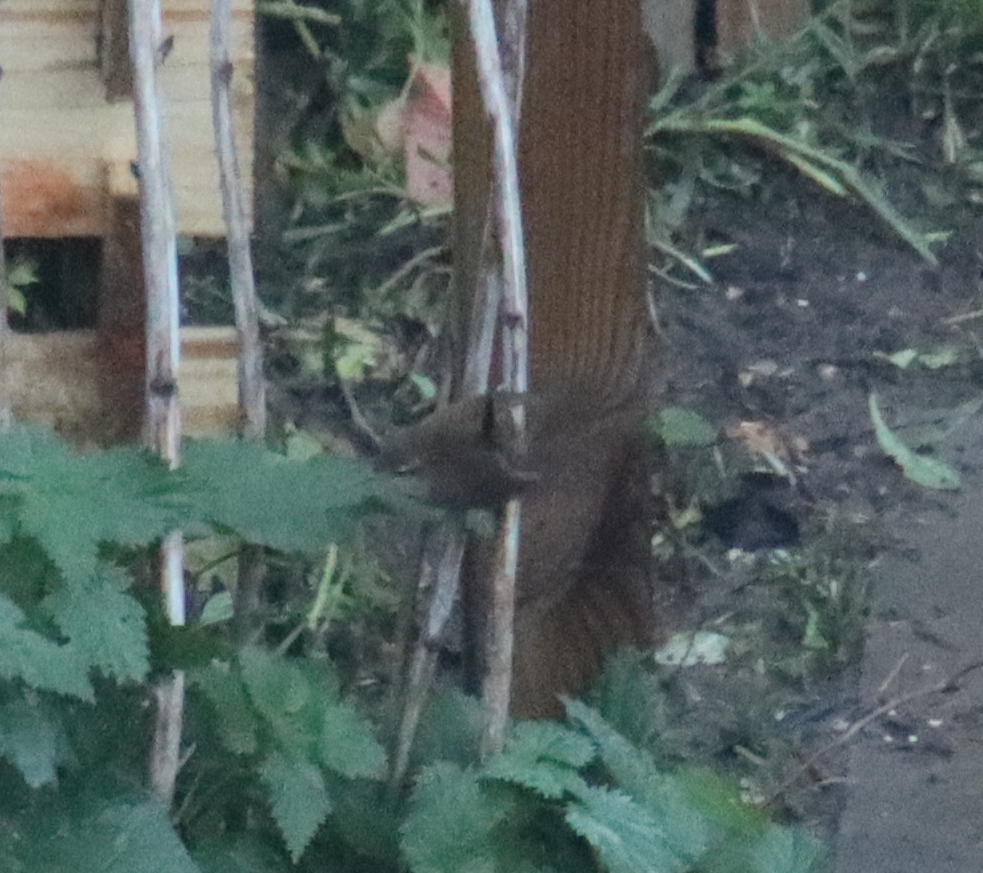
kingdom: Animalia
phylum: Chordata
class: Aves
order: Passeriformes
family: Troglodytidae
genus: Troglodytes
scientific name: Troglodytes troglodytes
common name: Eurasian wren
